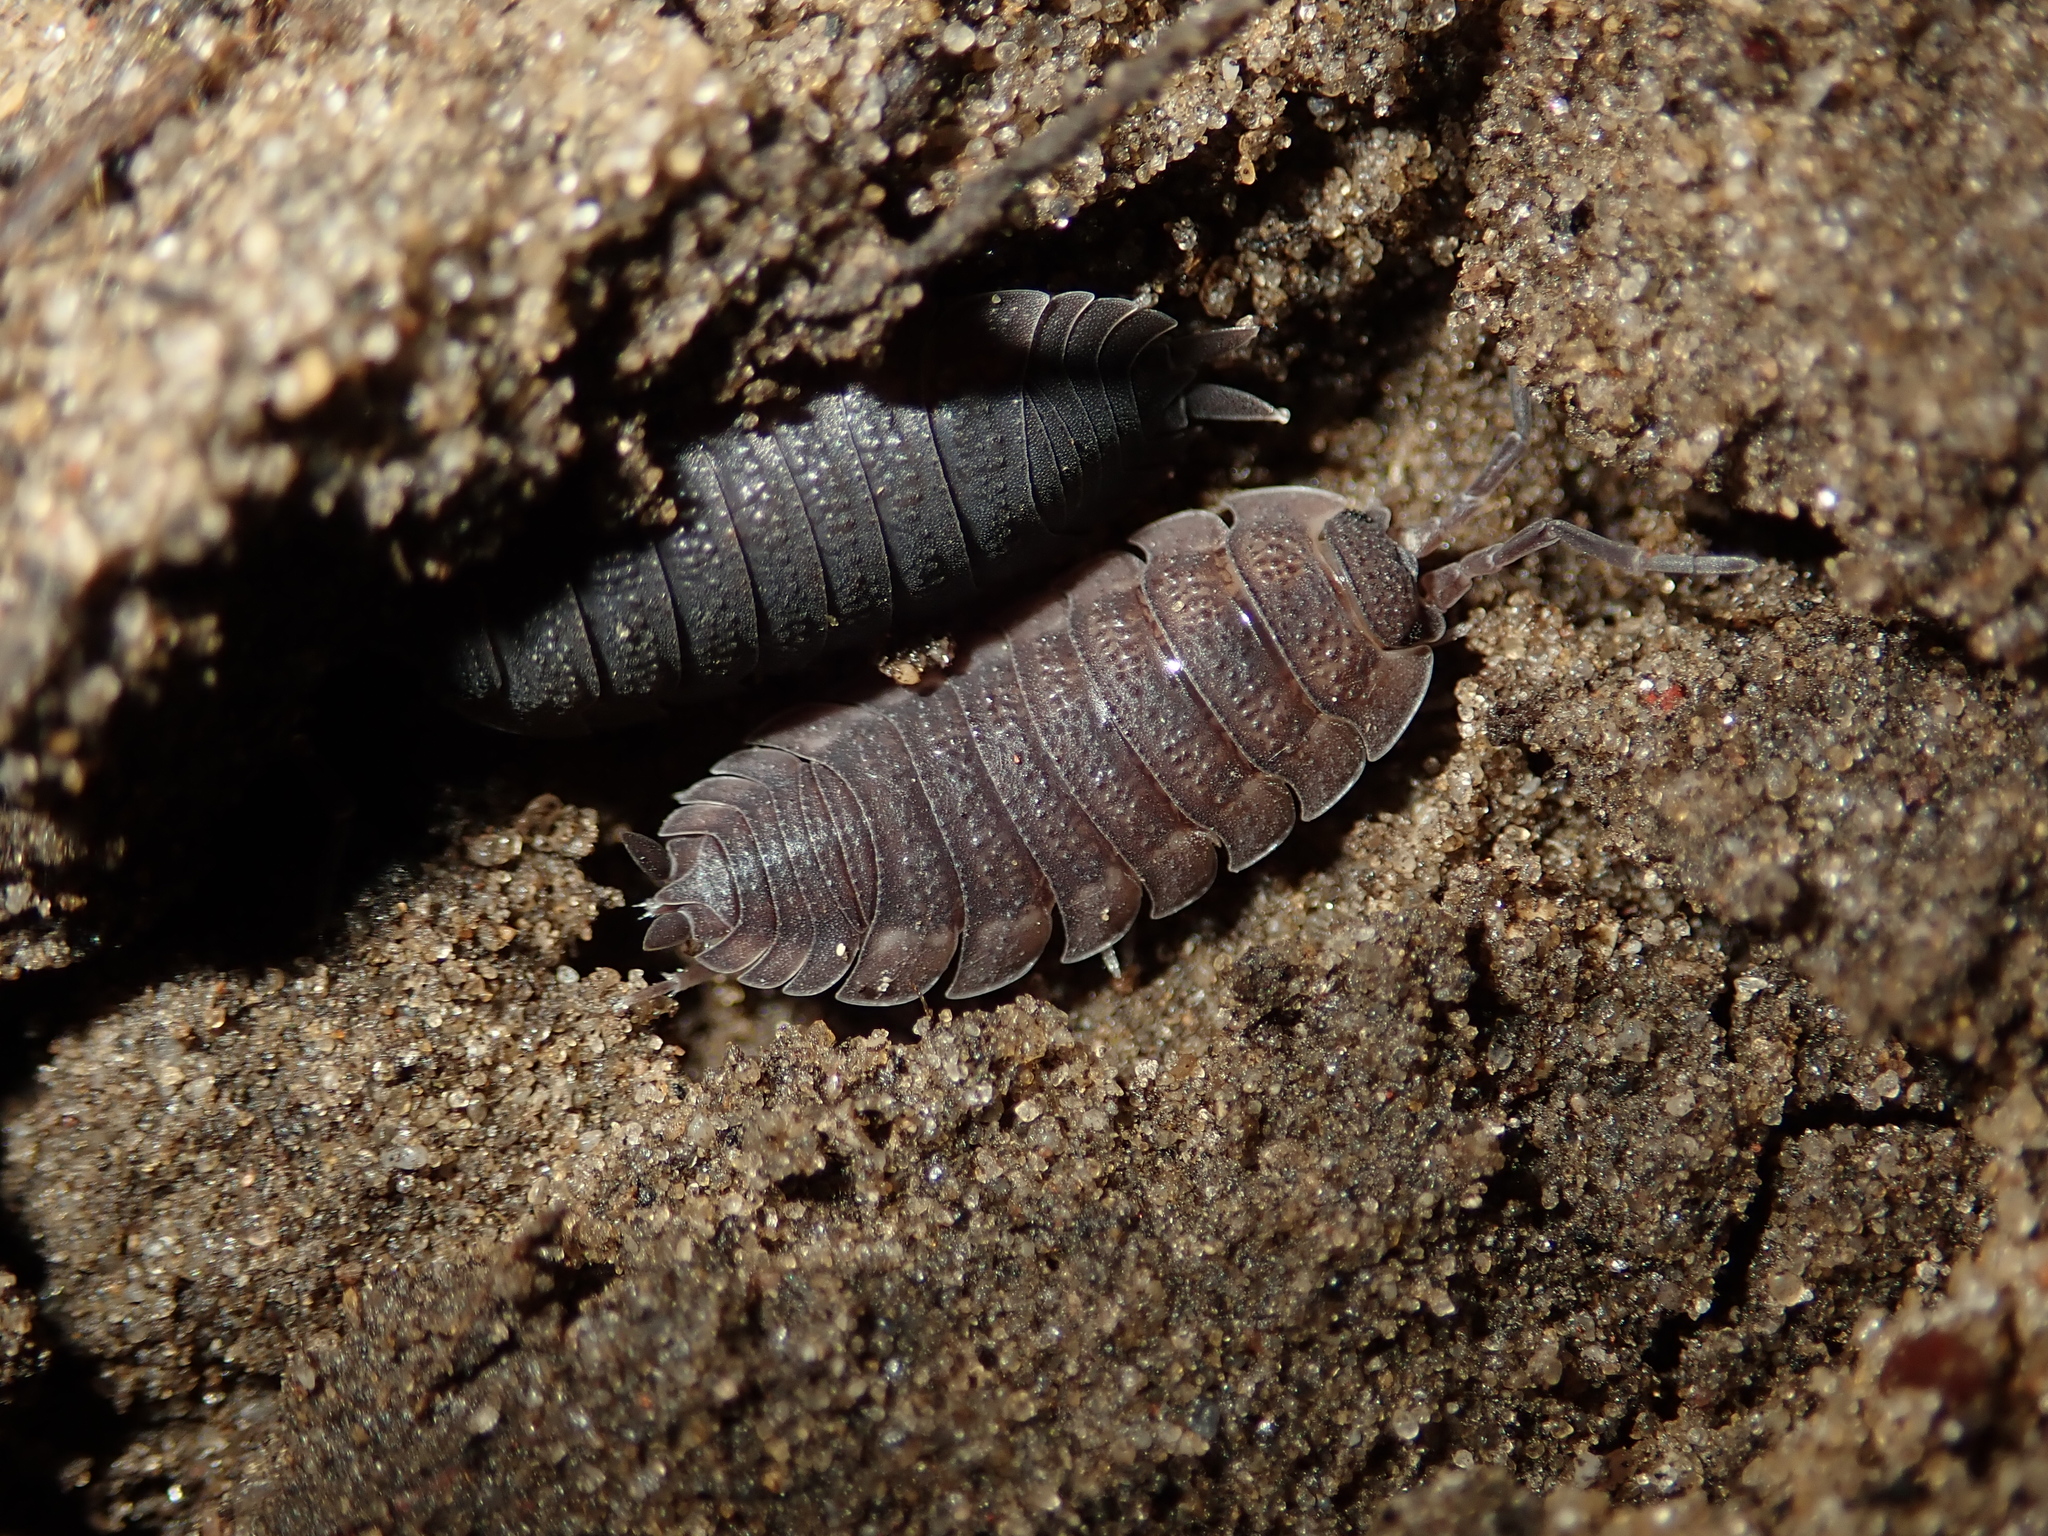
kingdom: Animalia
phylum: Arthropoda
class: Malacostraca
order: Isopoda
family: Porcellionidae
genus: Porcellio
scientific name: Porcellio scaber
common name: Common rough woodlouse
